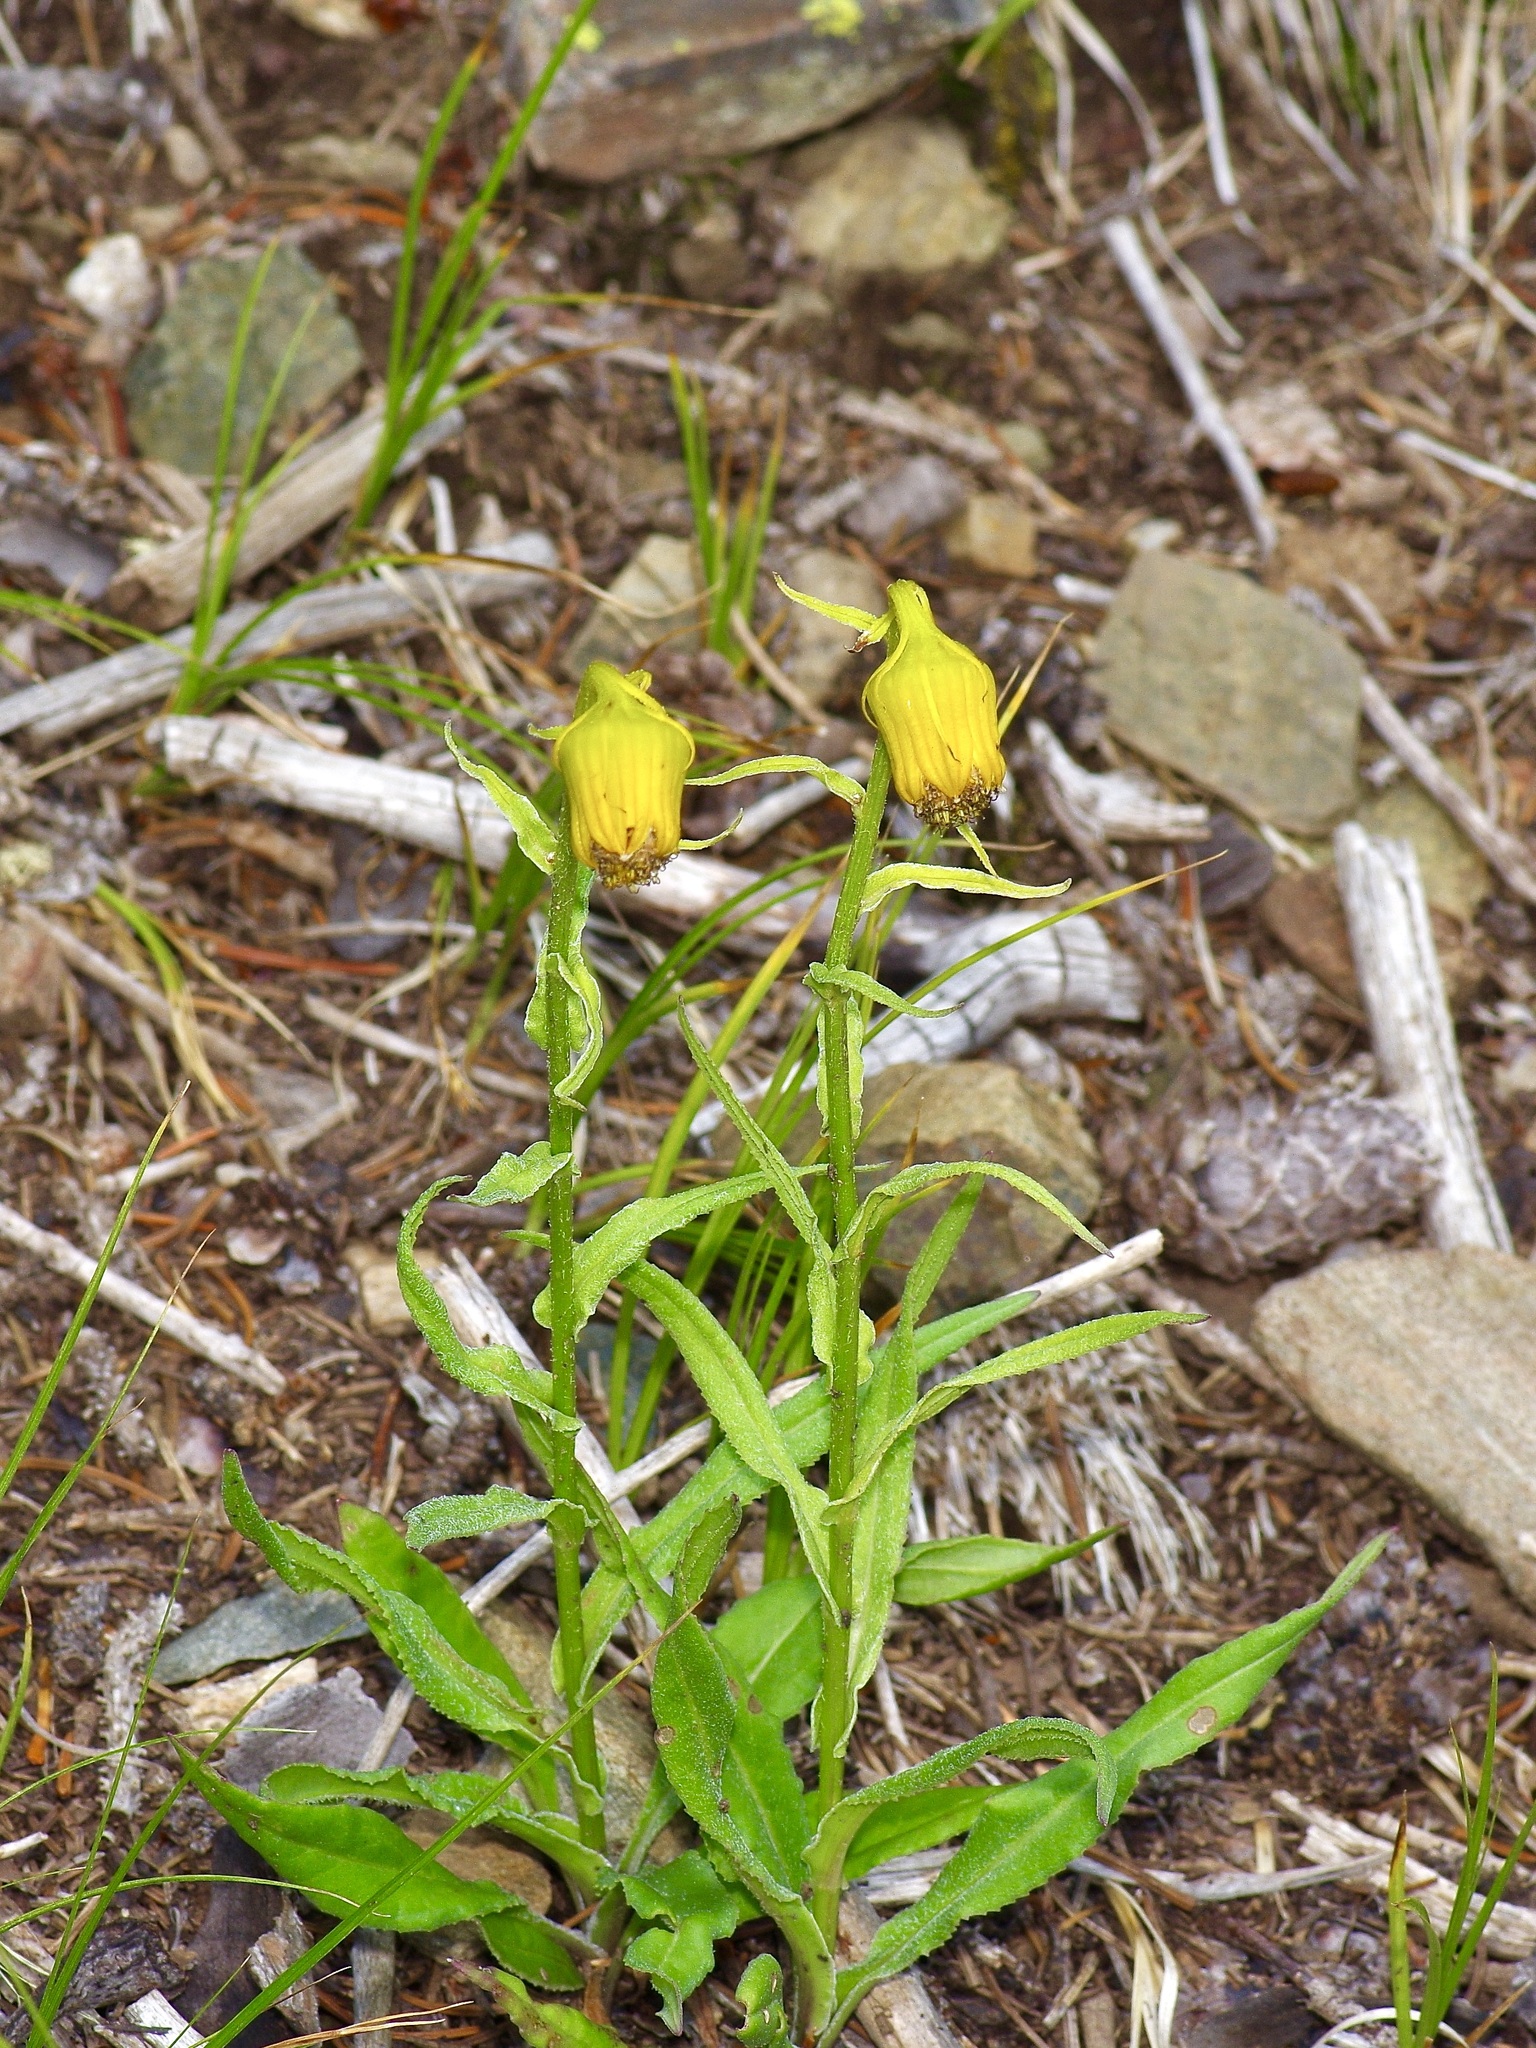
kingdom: Plantae
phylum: Tracheophyta
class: Magnoliopsida
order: Asterales
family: Asteraceae
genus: Senecio
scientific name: Senecio bigelovii
